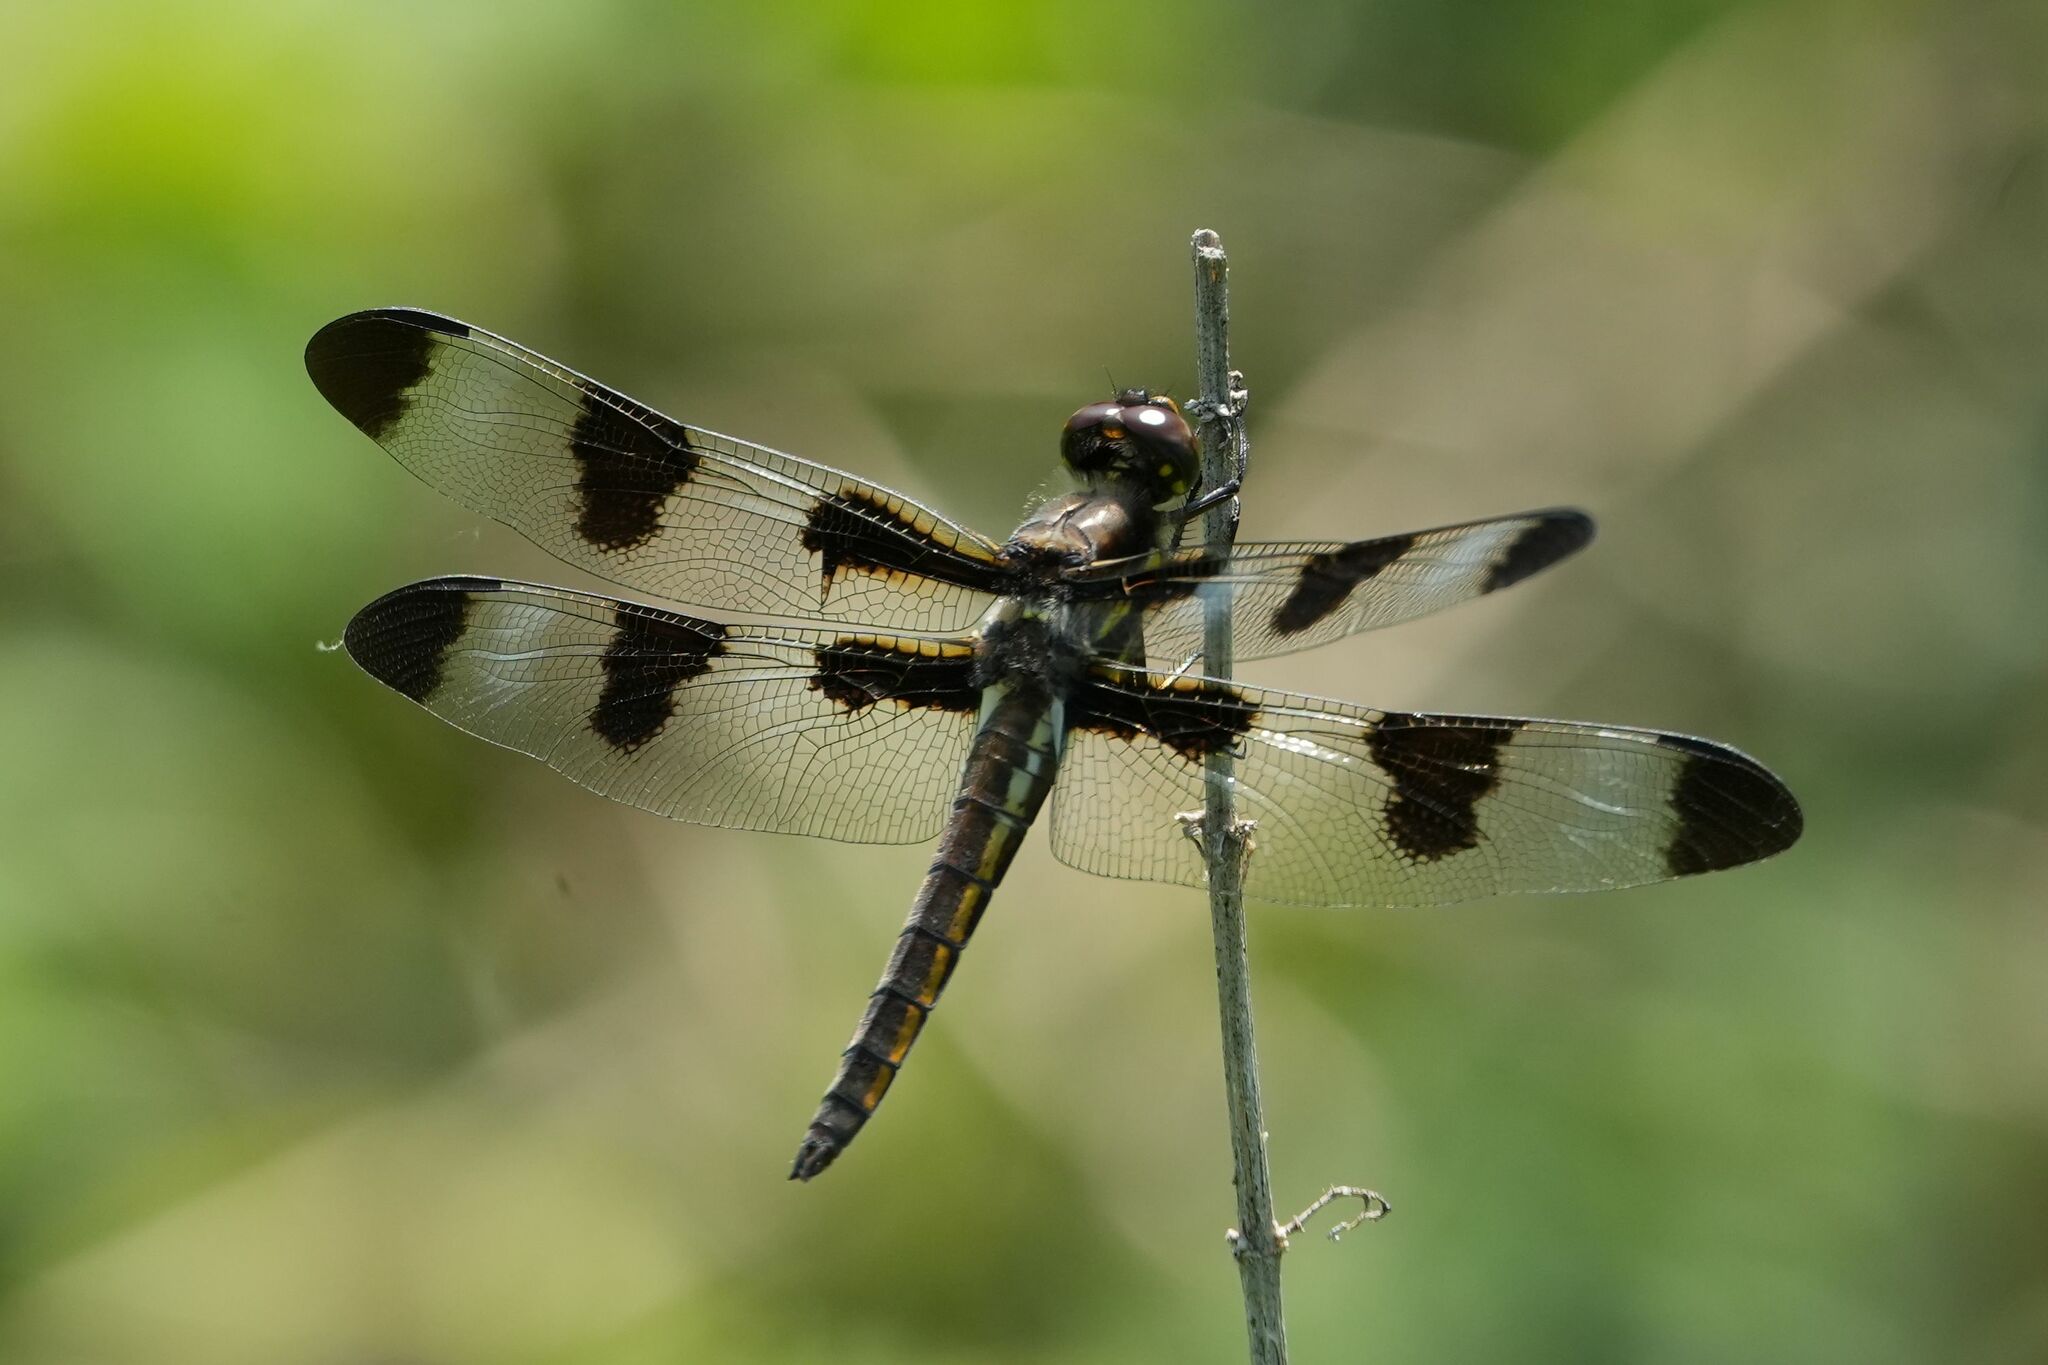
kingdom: Animalia
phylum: Arthropoda
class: Insecta
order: Odonata
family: Libellulidae
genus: Libellula
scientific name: Libellula pulchella
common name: Twelve-spotted skimmer
